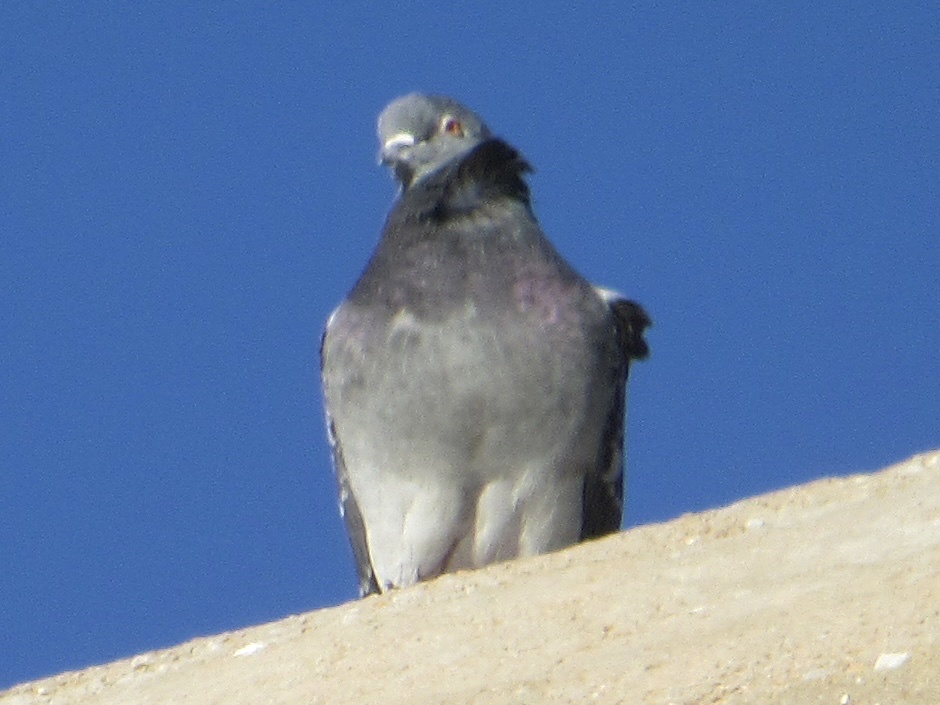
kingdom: Animalia
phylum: Chordata
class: Aves
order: Columbiformes
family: Columbidae
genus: Columba
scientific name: Columba livia
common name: Rock pigeon
